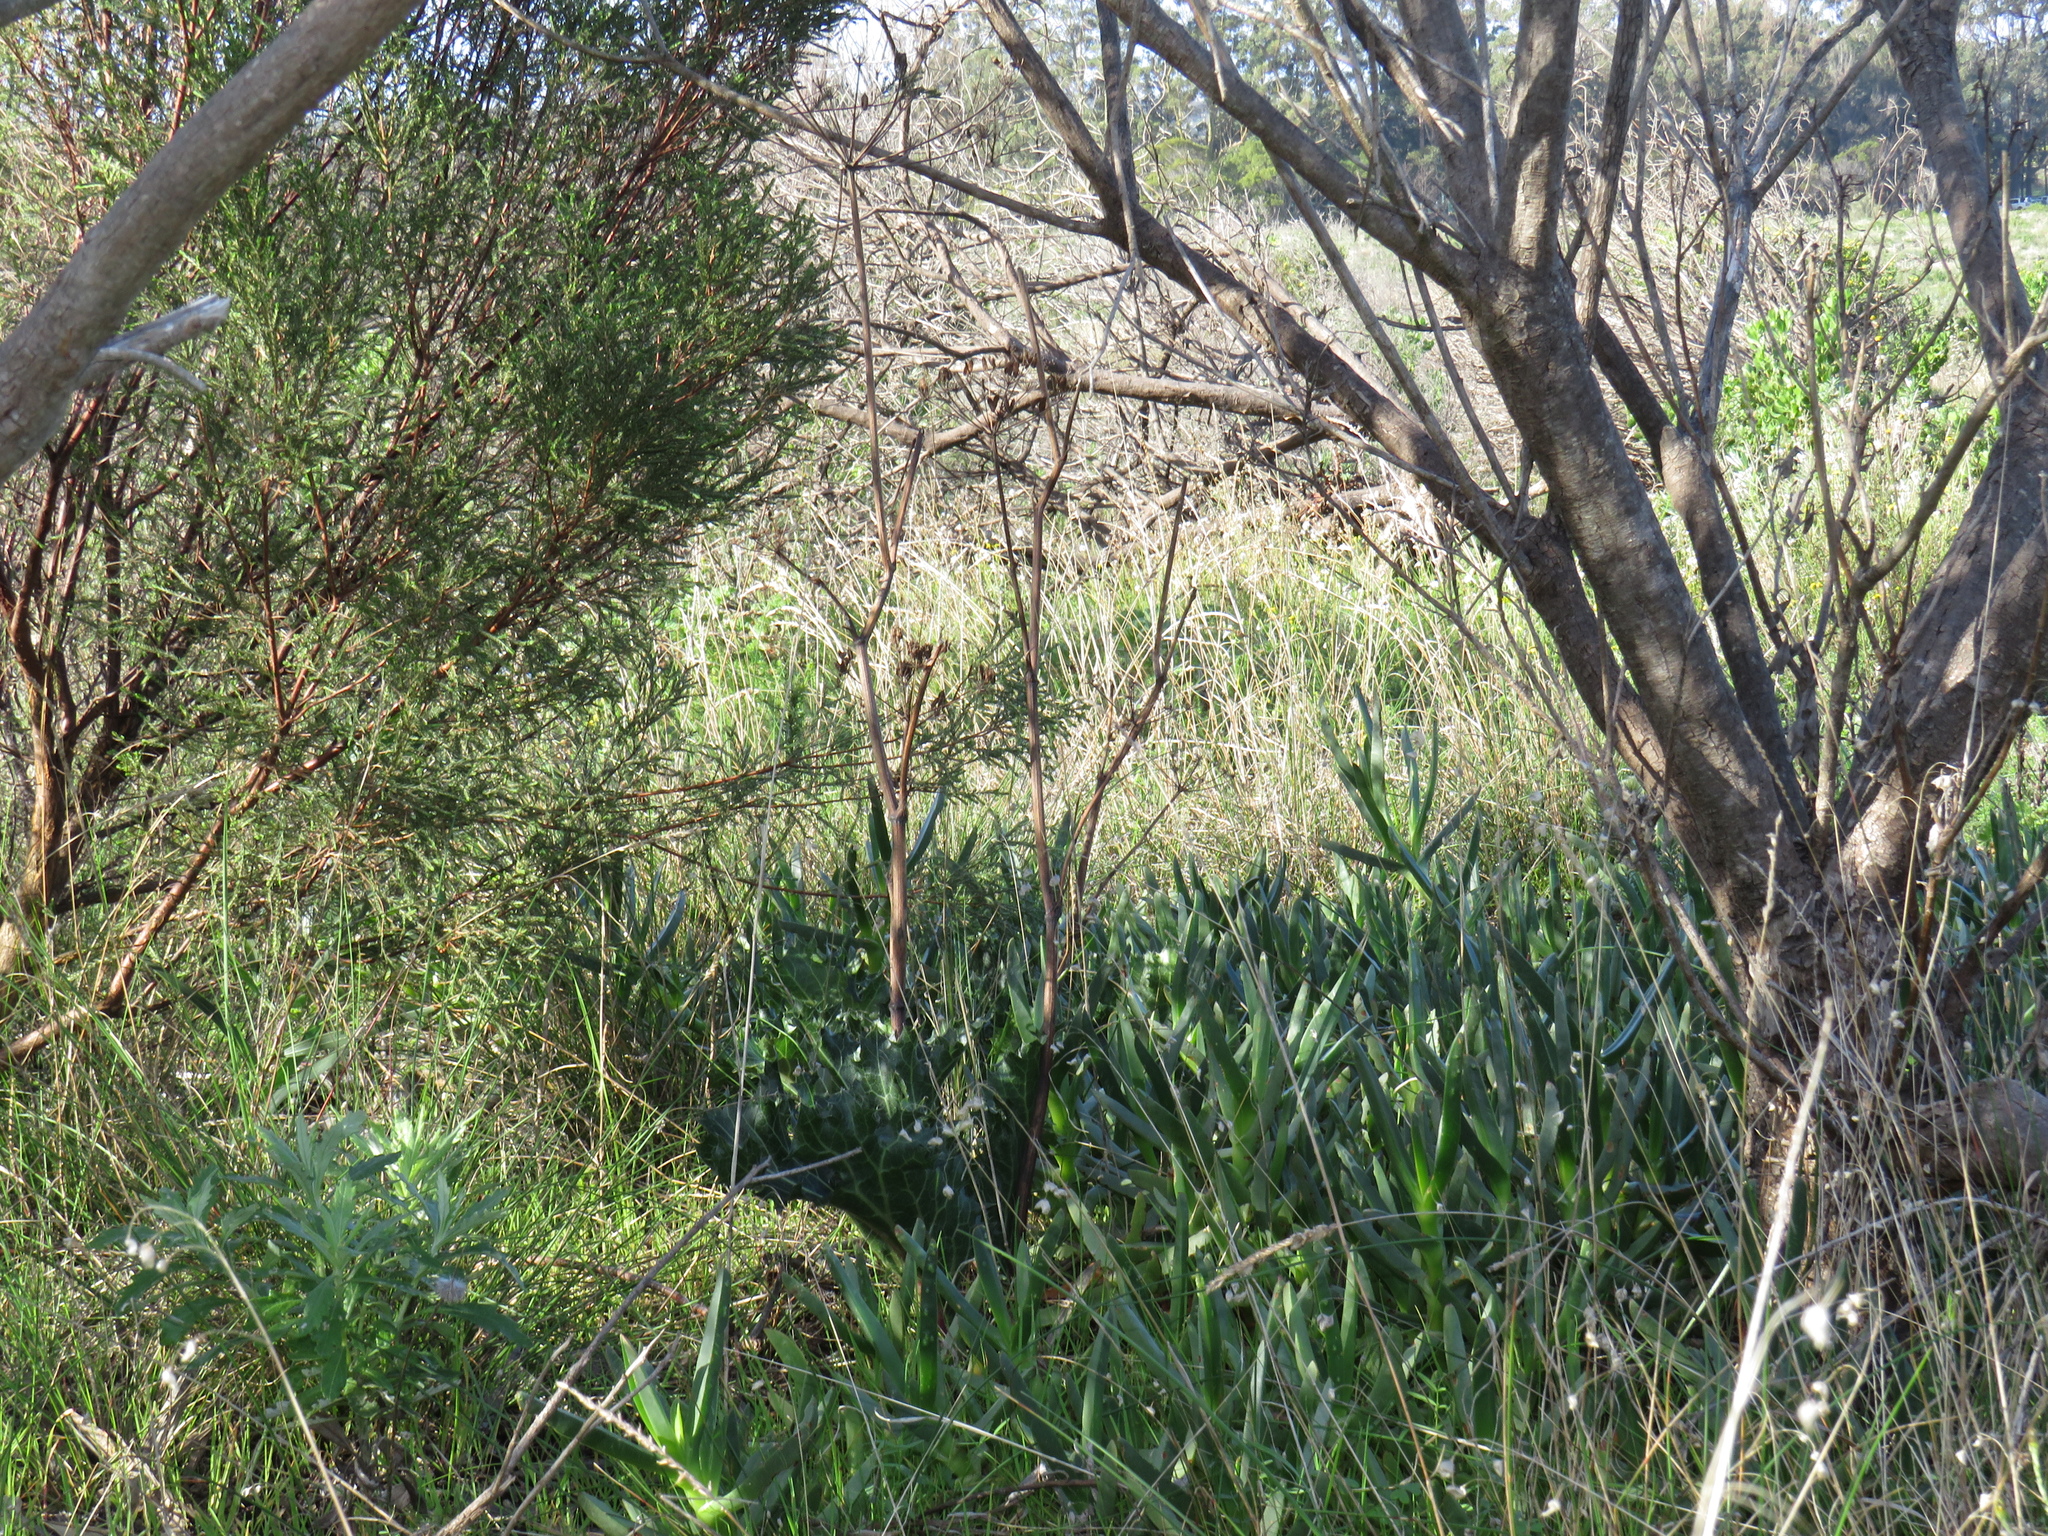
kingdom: Plantae
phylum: Tracheophyta
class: Magnoliopsida
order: Apiales
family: Apiaceae
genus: Lichtensteinia
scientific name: Lichtensteinia lacera
